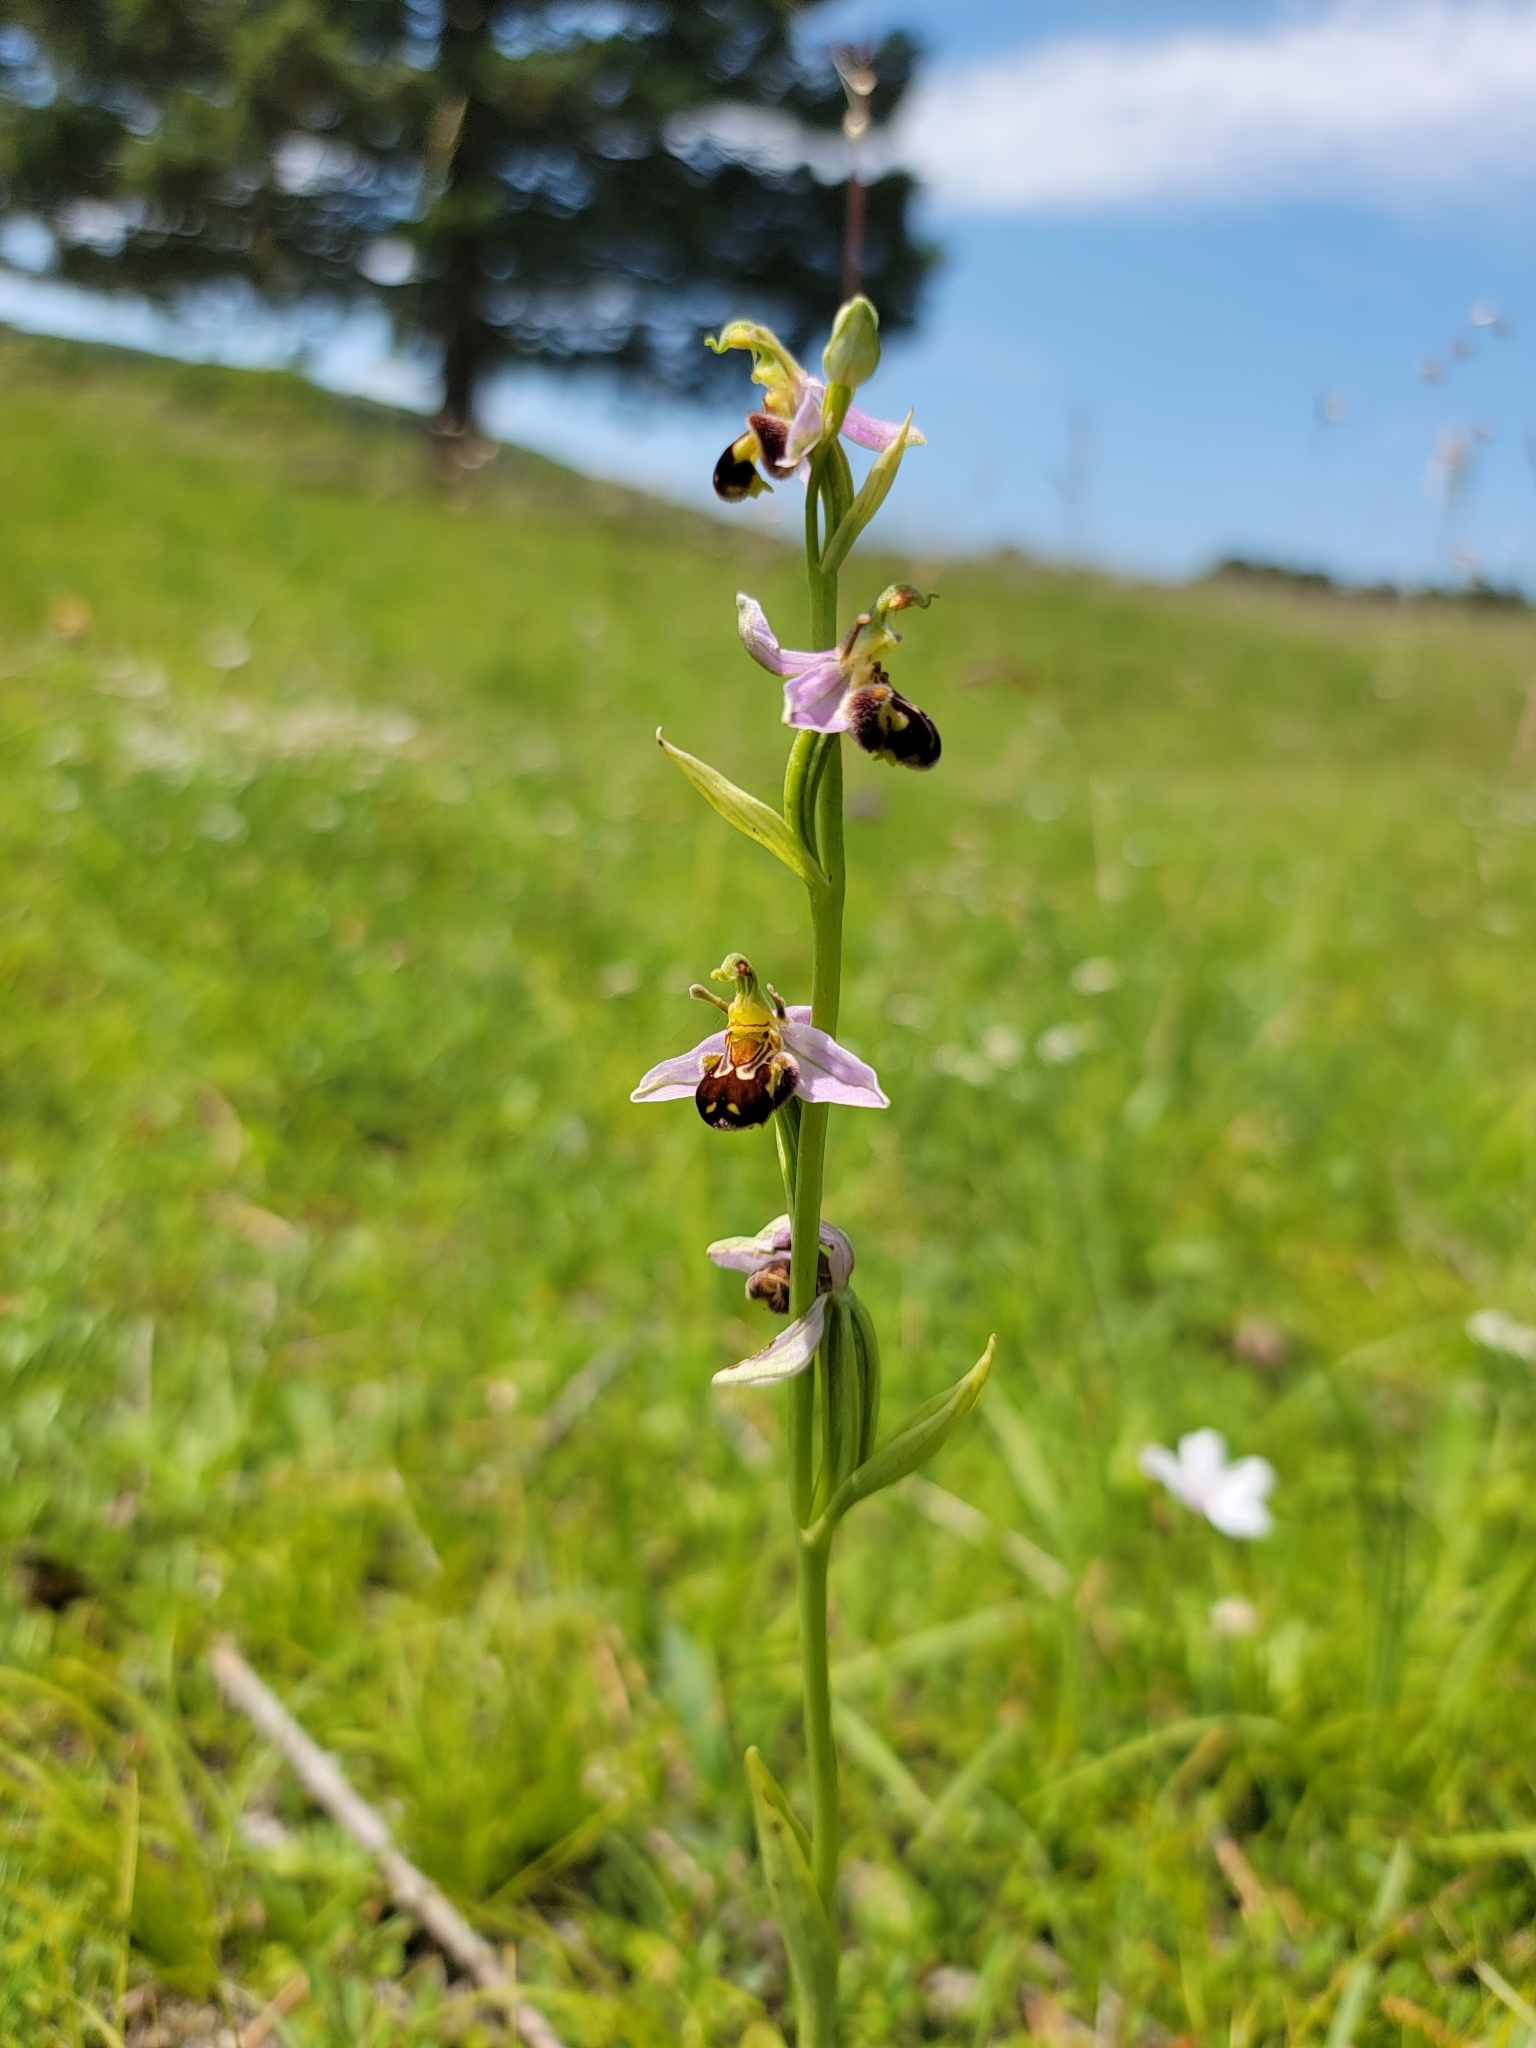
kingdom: Plantae
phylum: Tracheophyta
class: Liliopsida
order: Asparagales
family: Orchidaceae
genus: Ophrys
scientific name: Ophrys apifera
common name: Bee orchid
